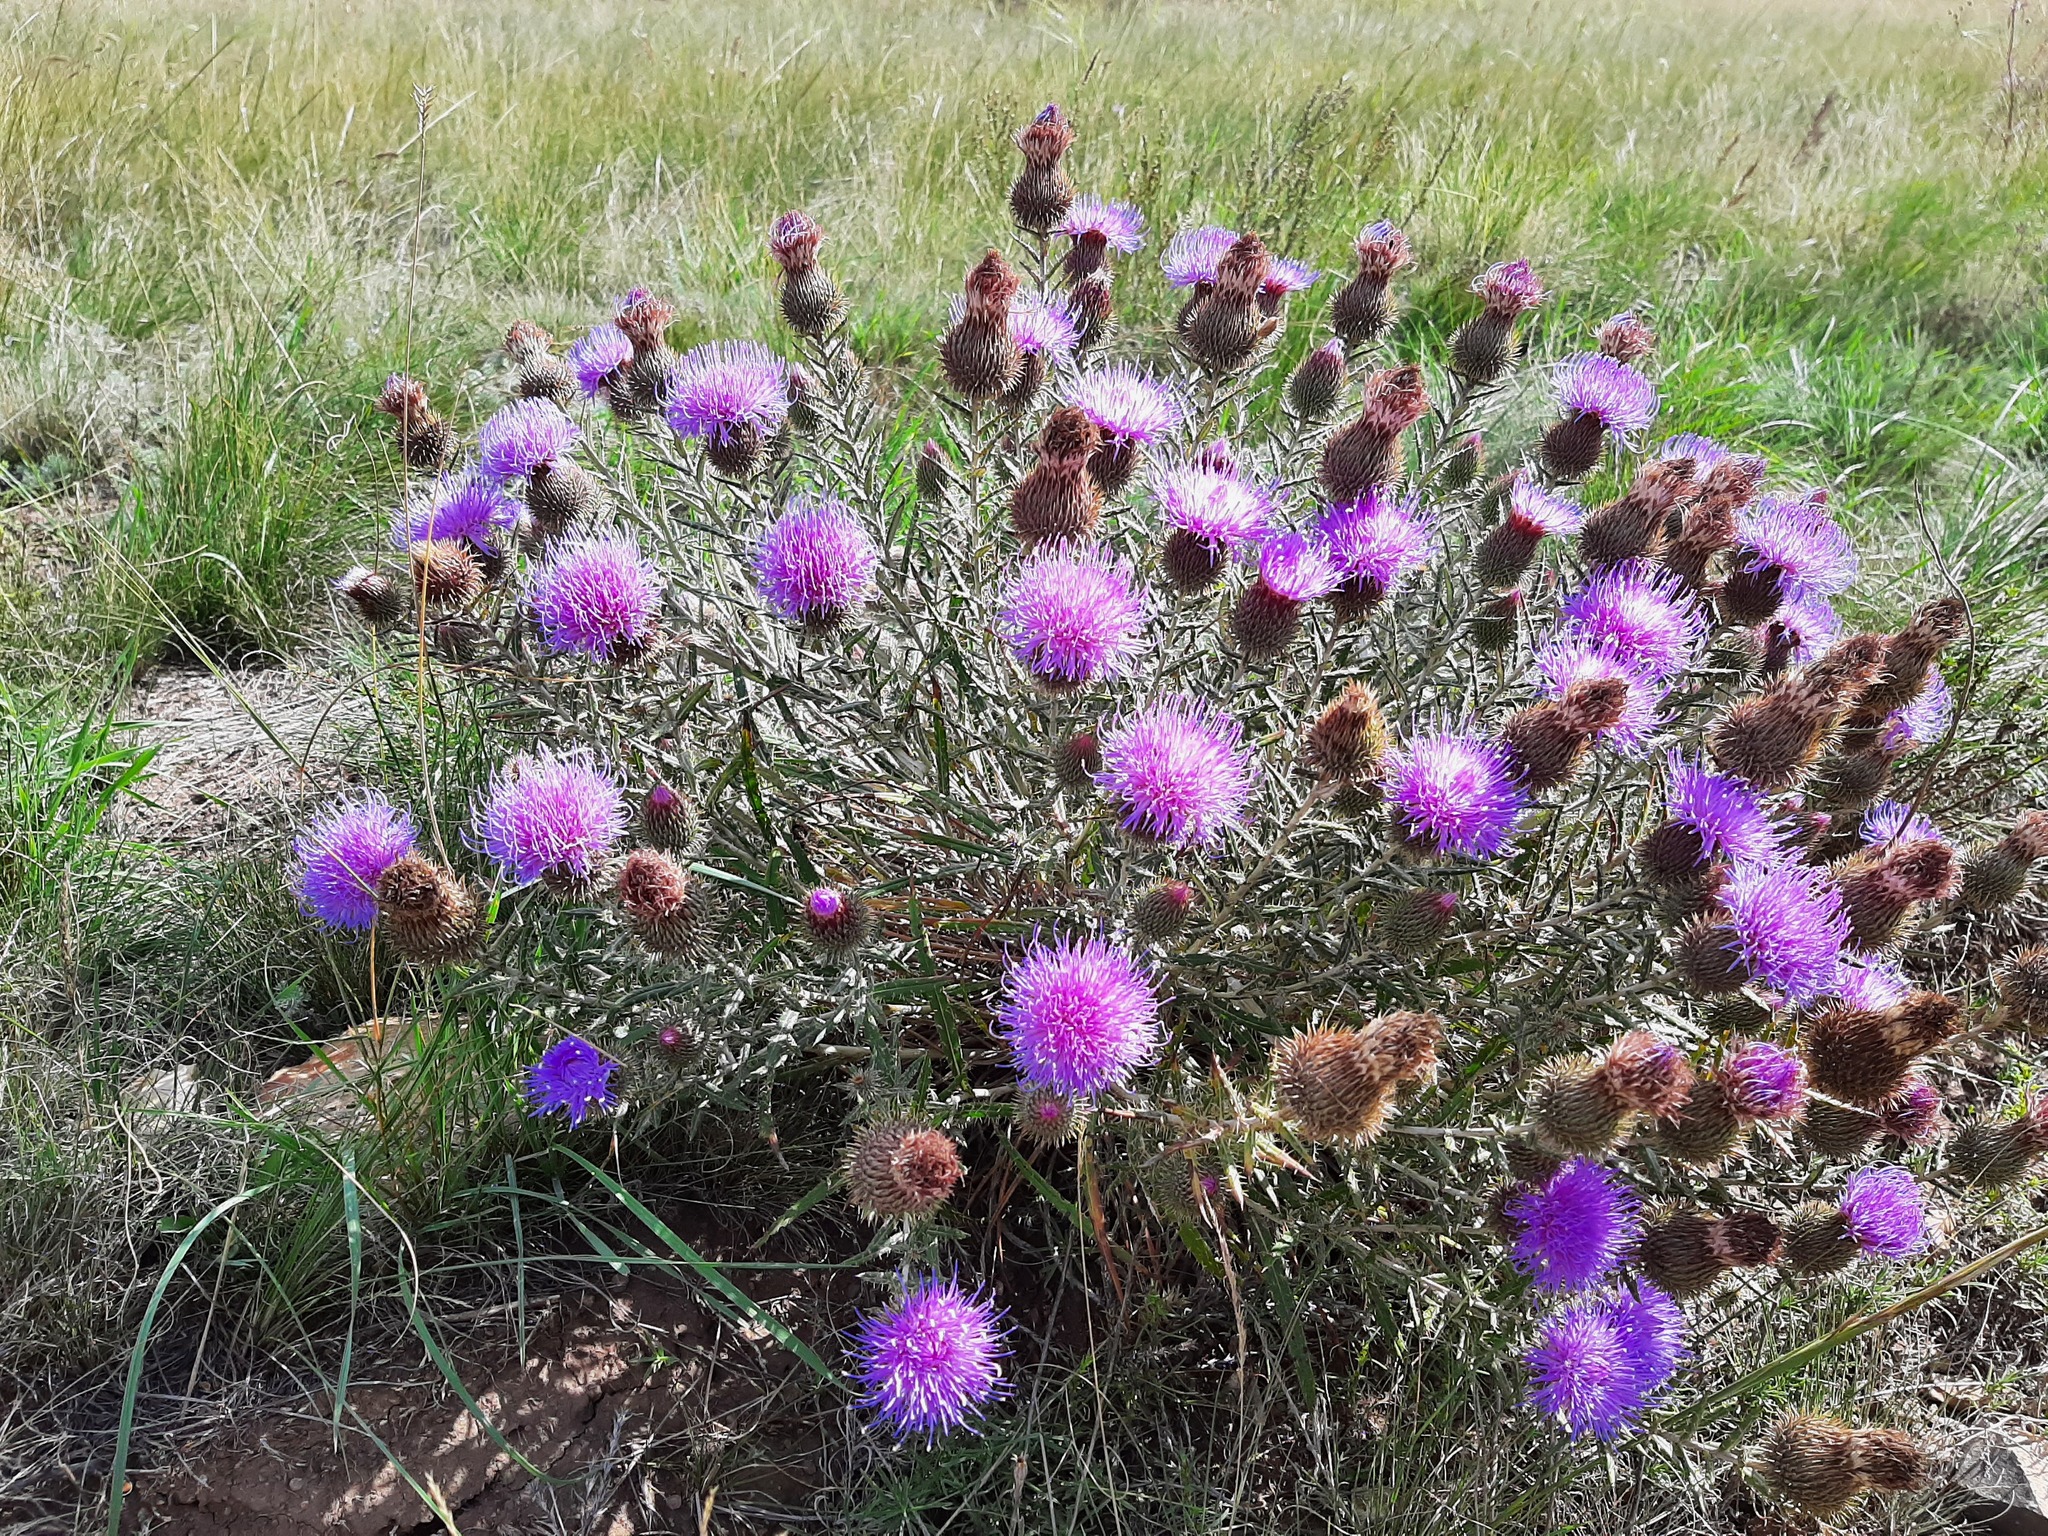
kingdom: Plantae
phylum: Tracheophyta
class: Magnoliopsida
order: Asterales
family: Asteraceae
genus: Ancathia
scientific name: Ancathia igniaria
